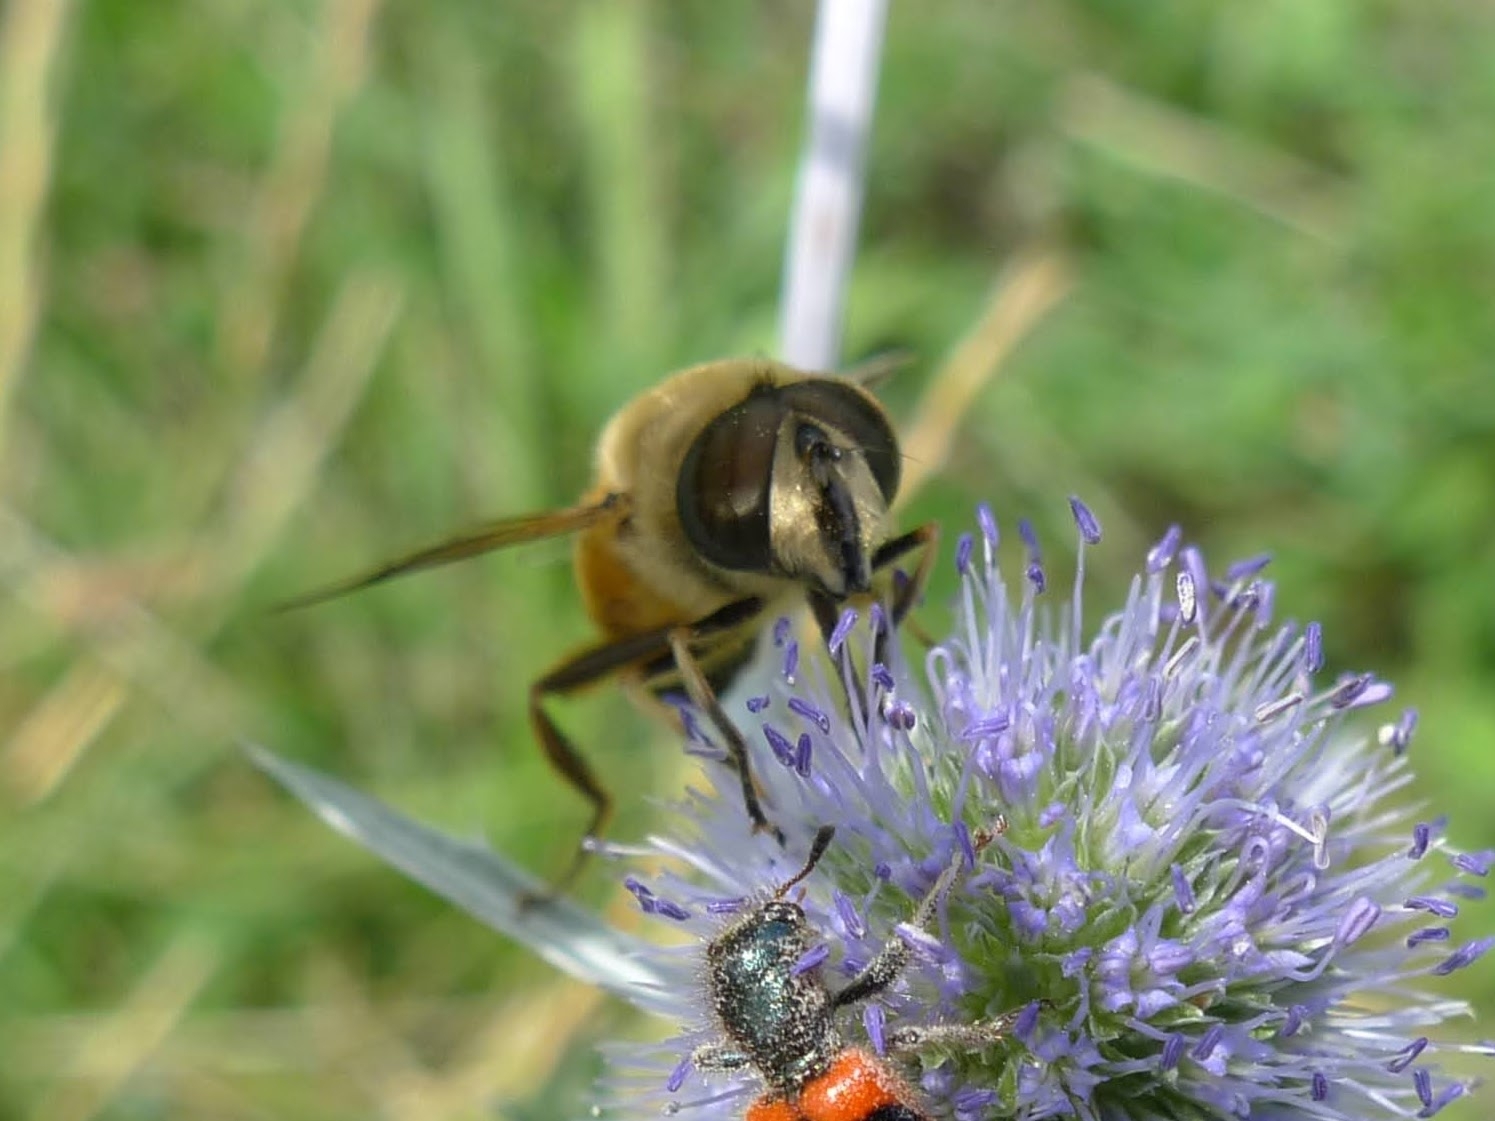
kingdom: Animalia
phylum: Arthropoda
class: Insecta
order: Diptera
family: Syrphidae
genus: Eristalis
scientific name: Eristalis tenax
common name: Drone fly
